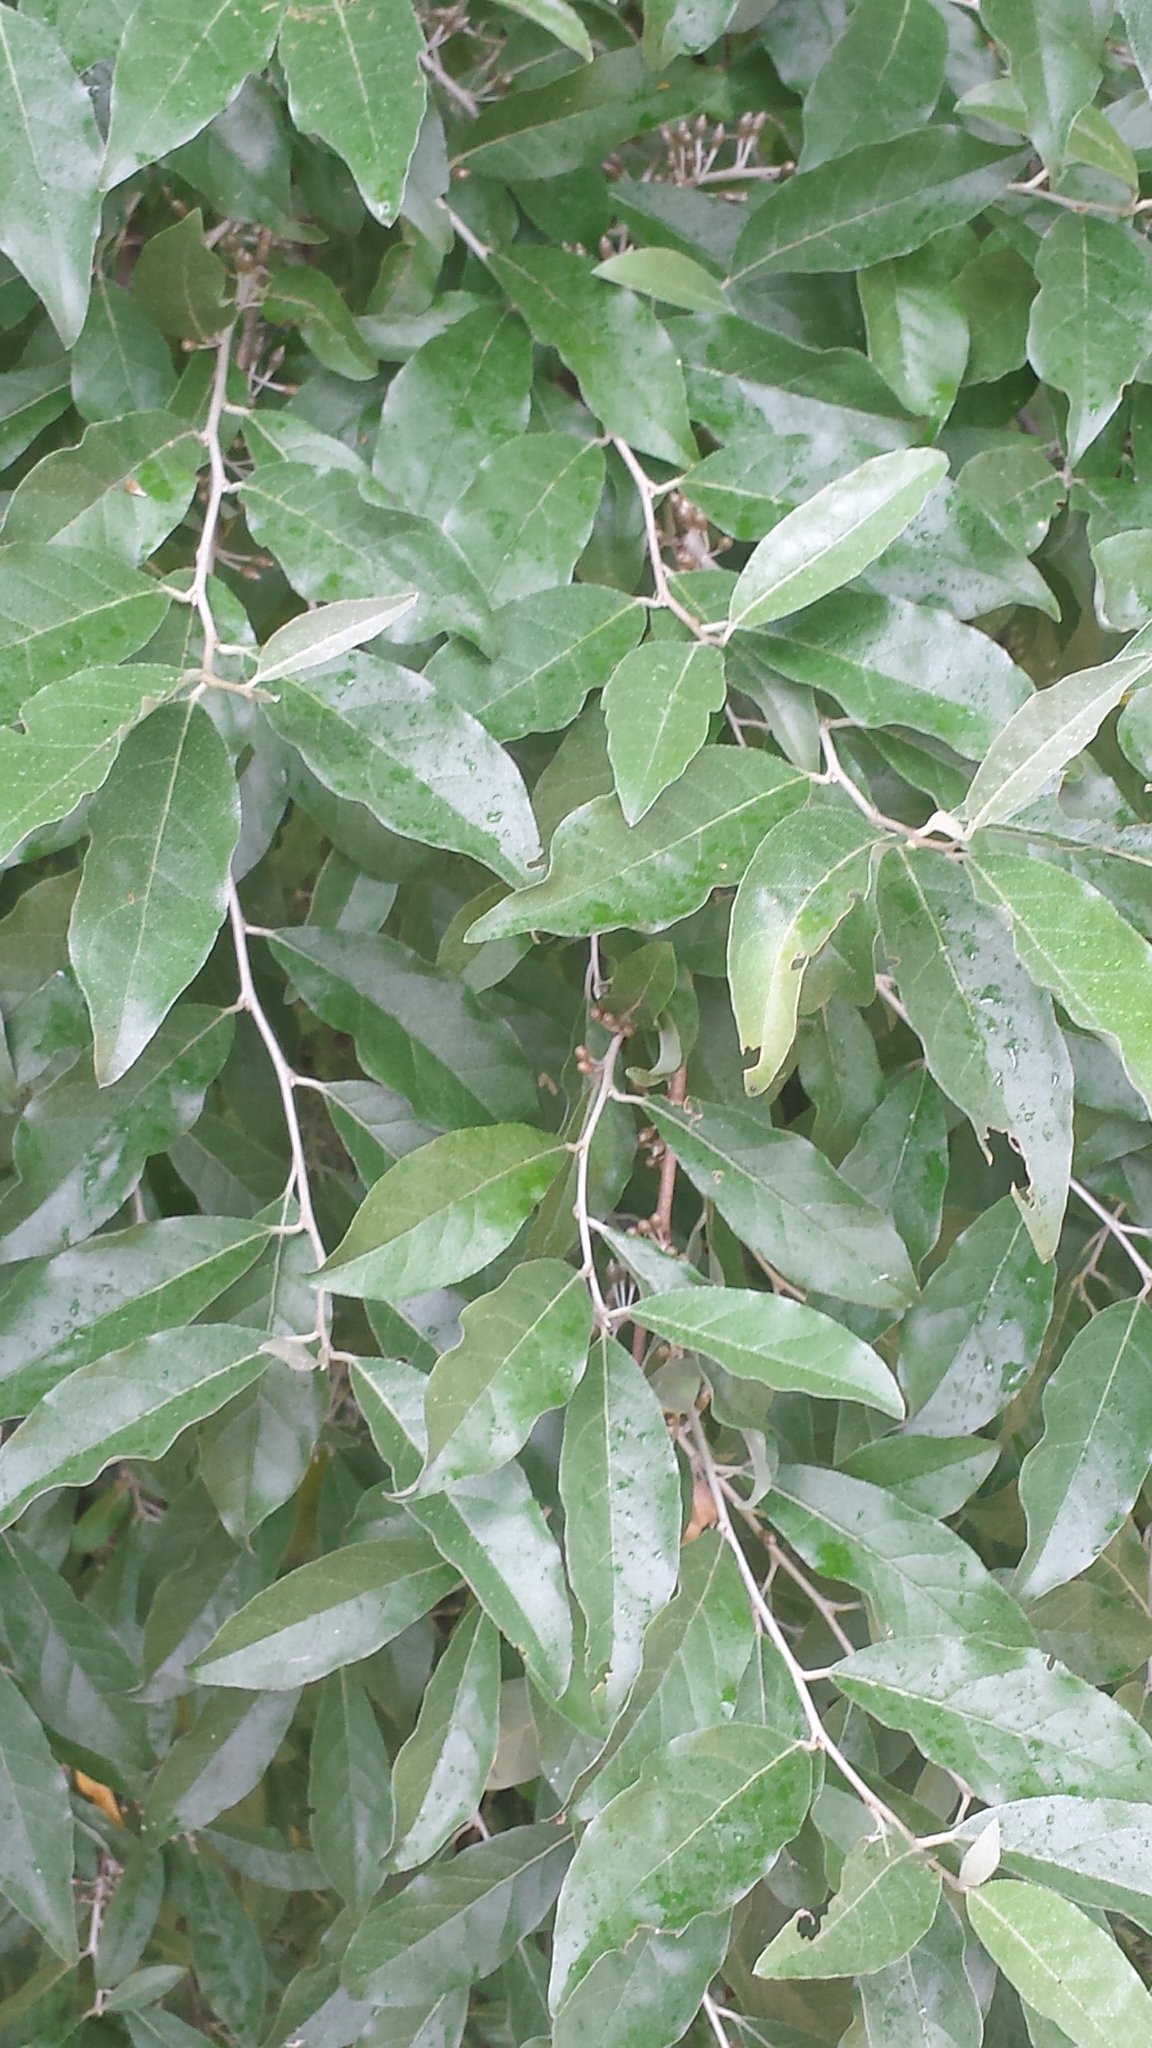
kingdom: Plantae
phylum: Tracheophyta
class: Magnoliopsida
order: Rosales
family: Elaeagnaceae
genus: Elaeagnus
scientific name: Elaeagnus umbellata
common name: Autumn olive
